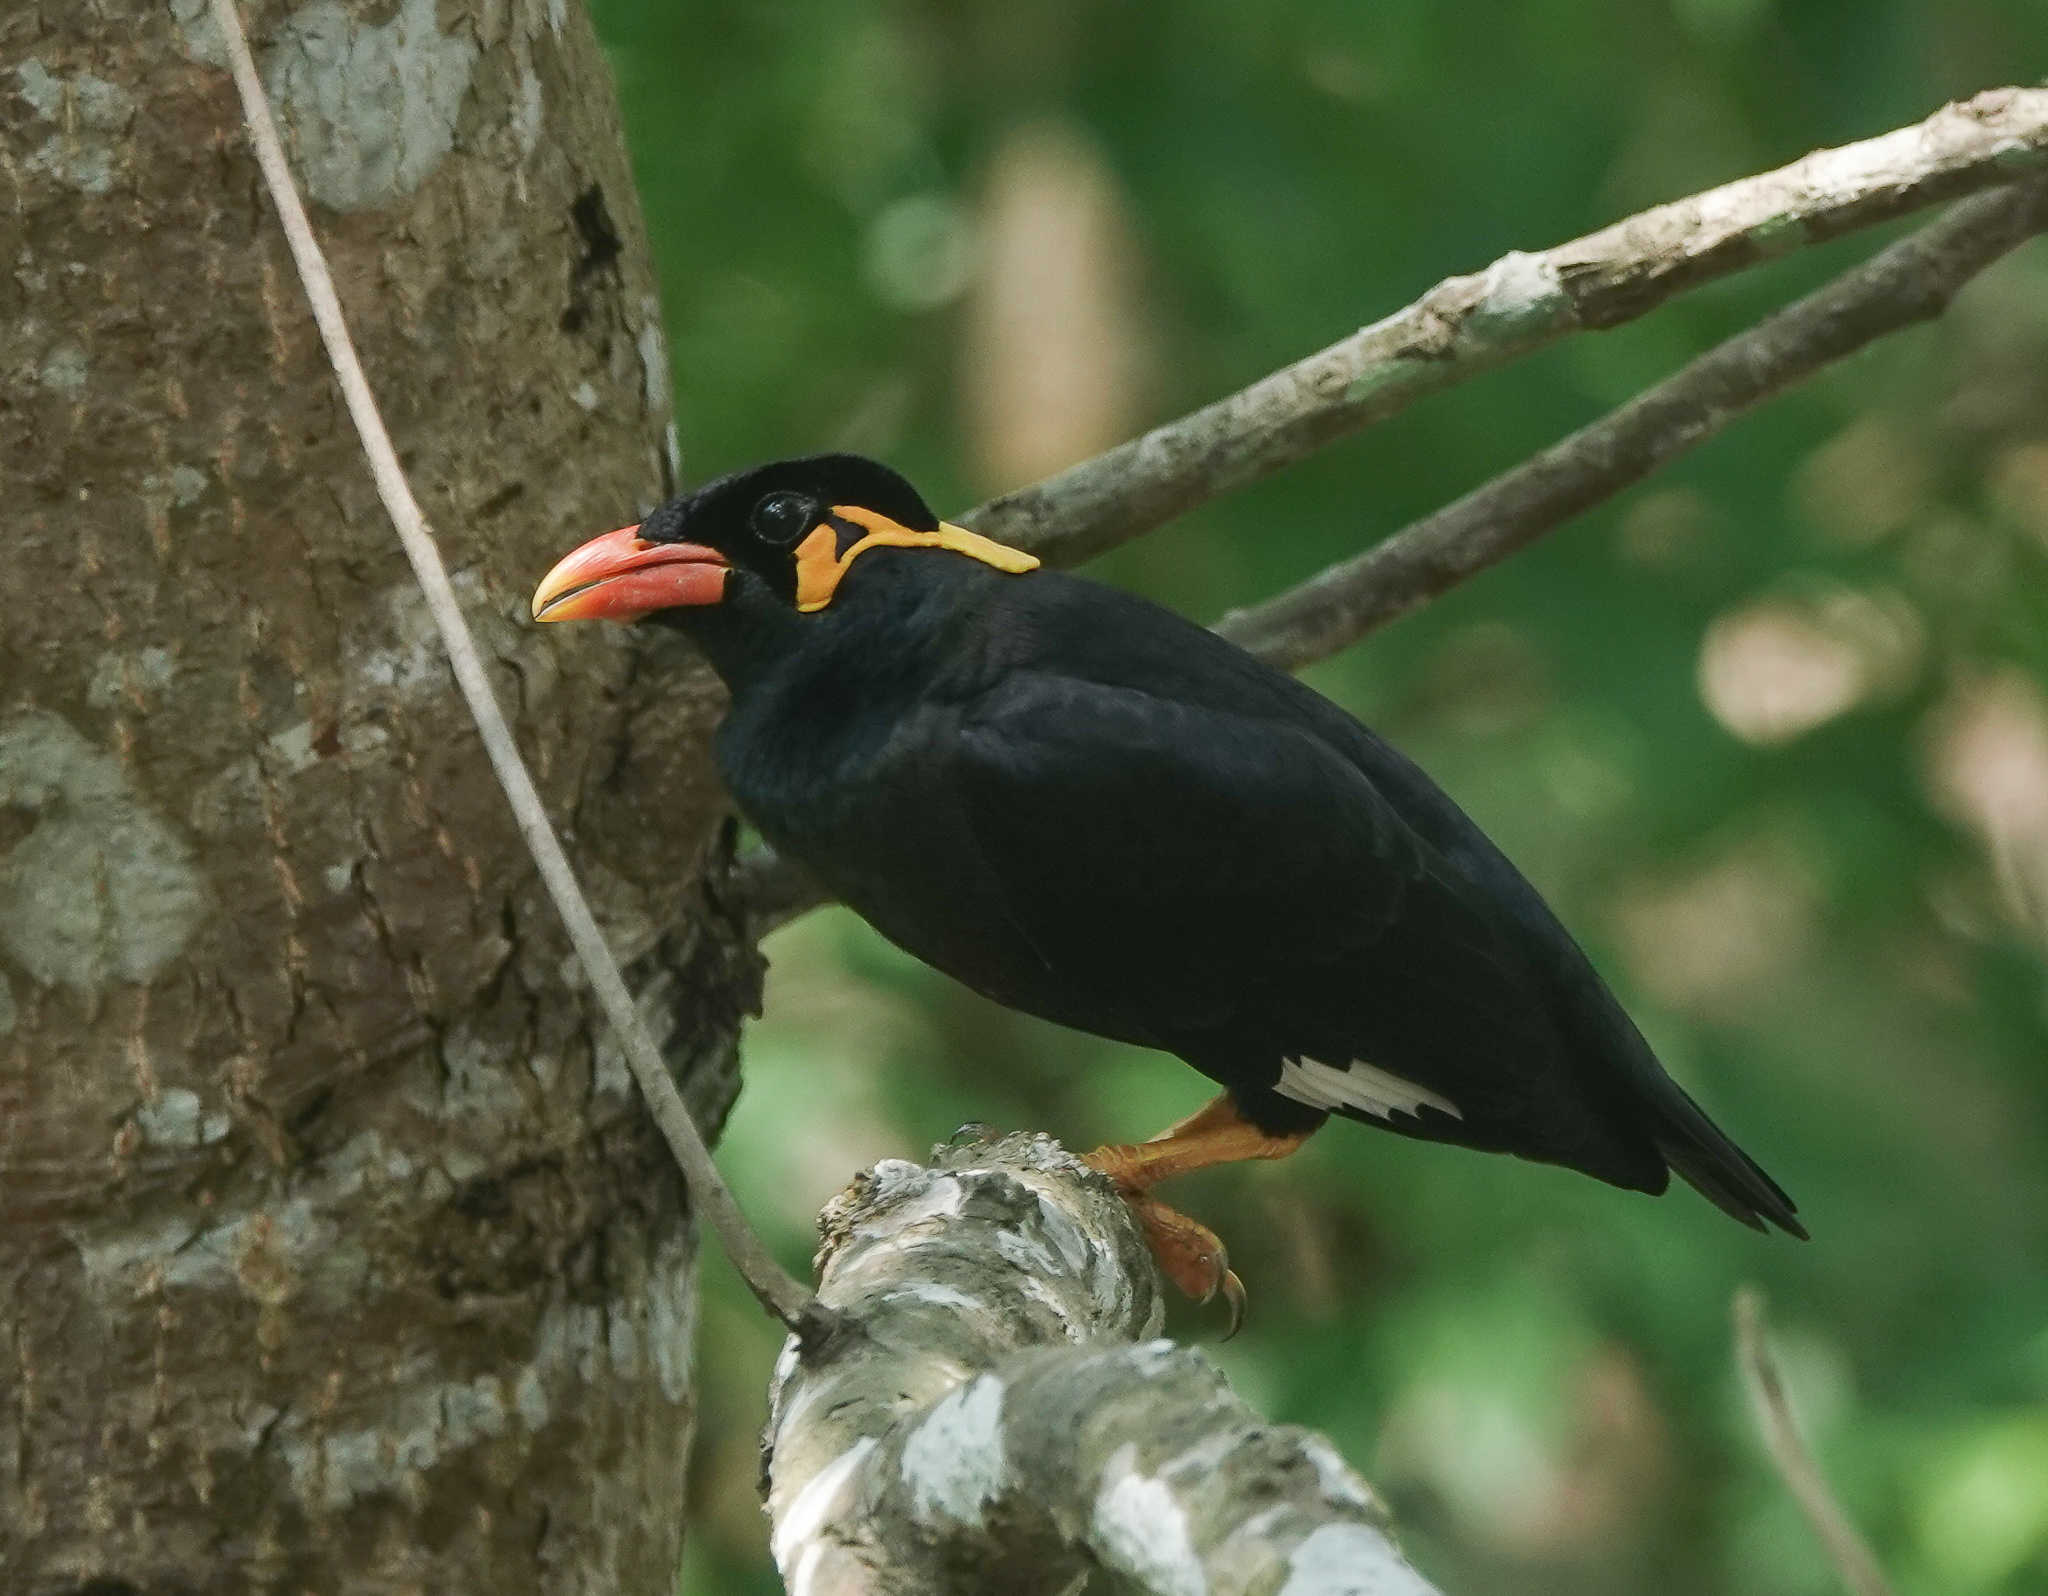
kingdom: Animalia
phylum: Chordata
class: Aves
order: Passeriformes
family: Sturnidae
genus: Gracula
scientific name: Gracula religiosa
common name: Common hill myna
